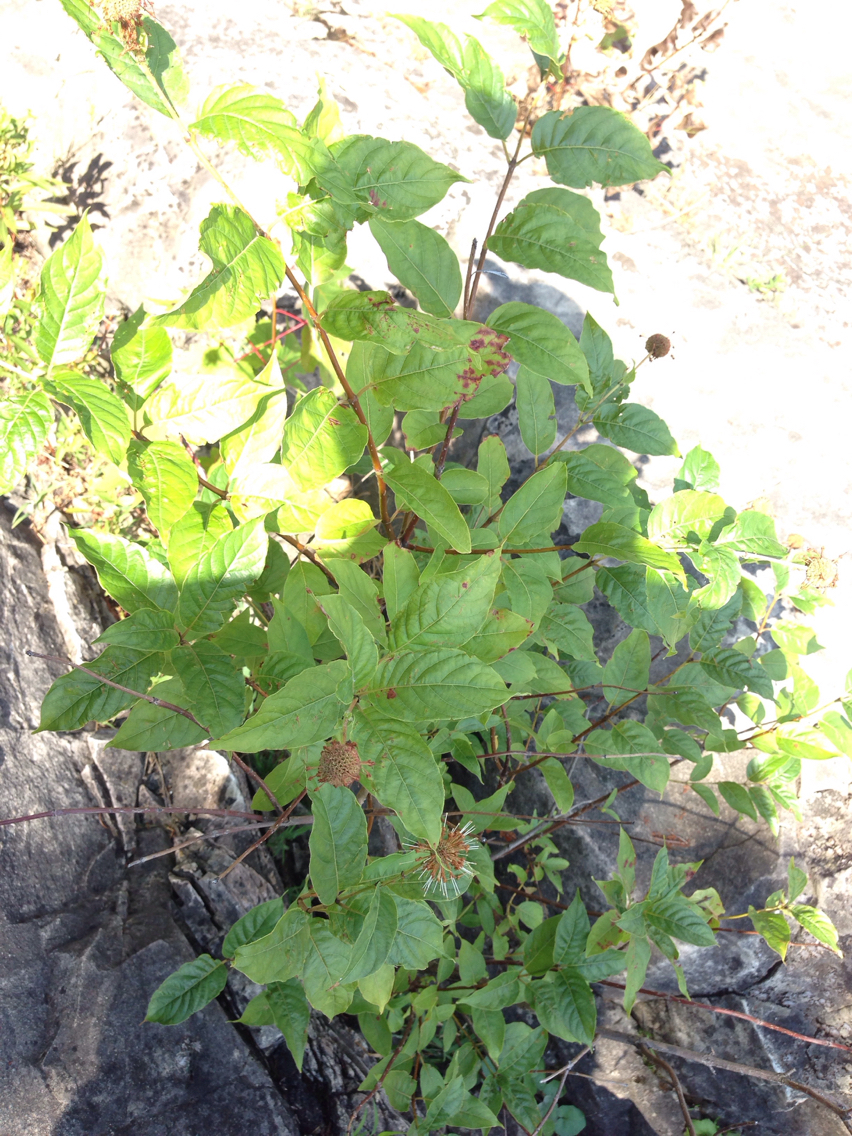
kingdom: Plantae
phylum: Tracheophyta
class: Magnoliopsida
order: Gentianales
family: Rubiaceae
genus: Cephalanthus
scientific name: Cephalanthus occidentalis
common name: Button-willow
